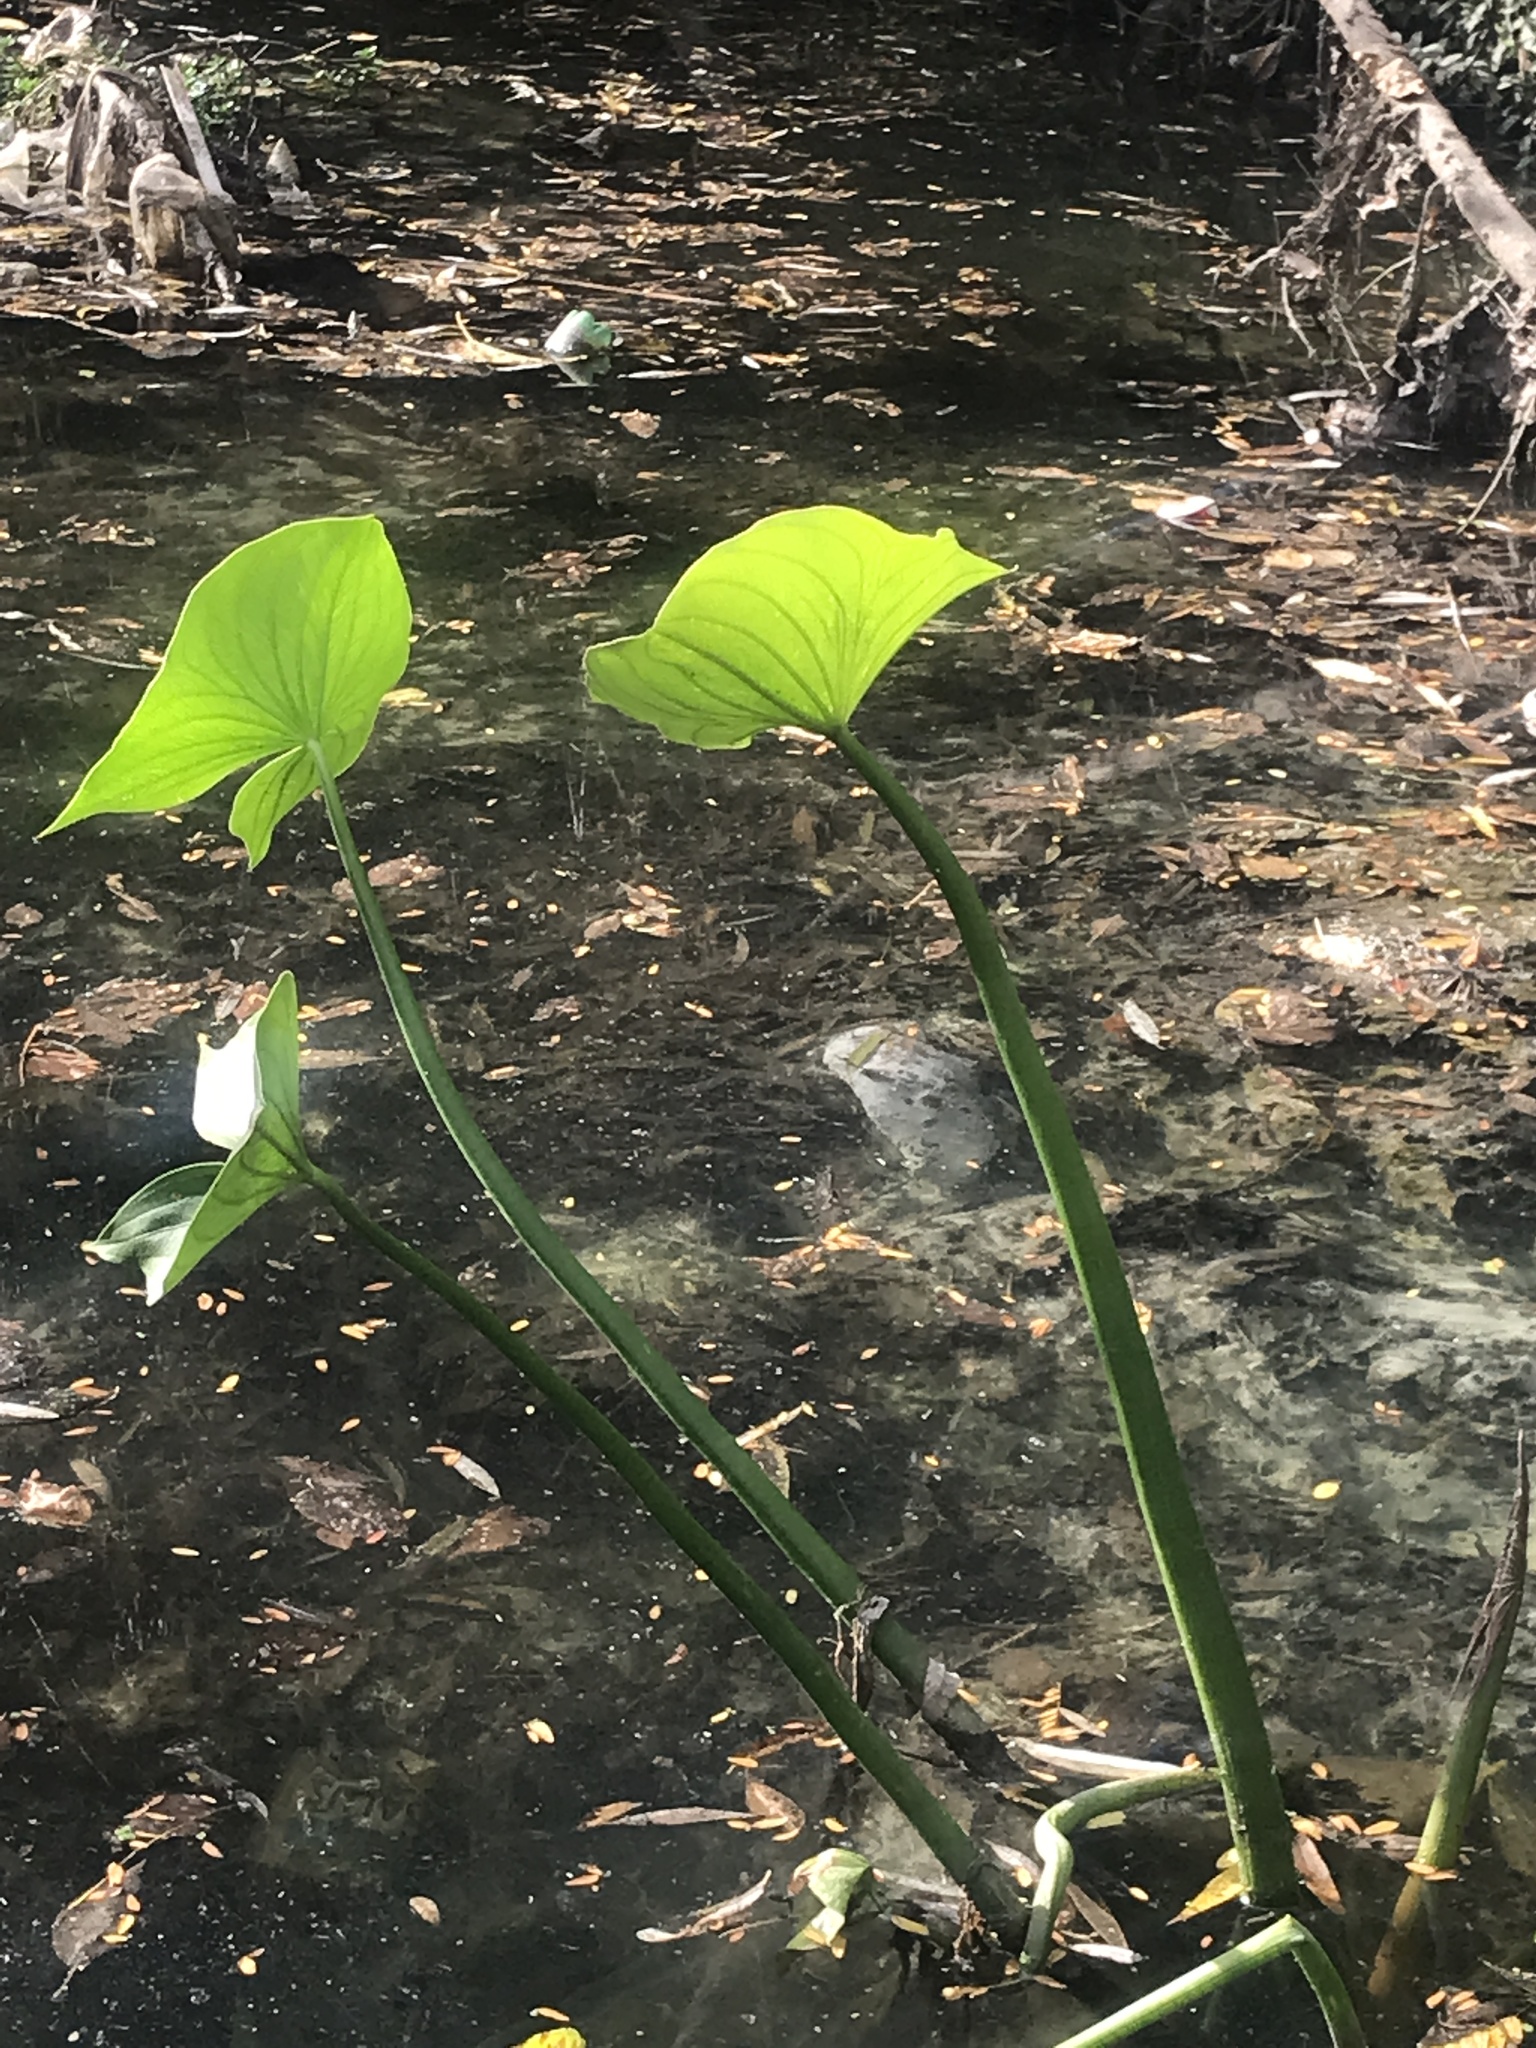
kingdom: Plantae
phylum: Tracheophyta
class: Liliopsida
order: Alismatales
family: Alismataceae
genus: Sagittaria
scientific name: Sagittaria montevidensis
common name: Giant arrowhead
